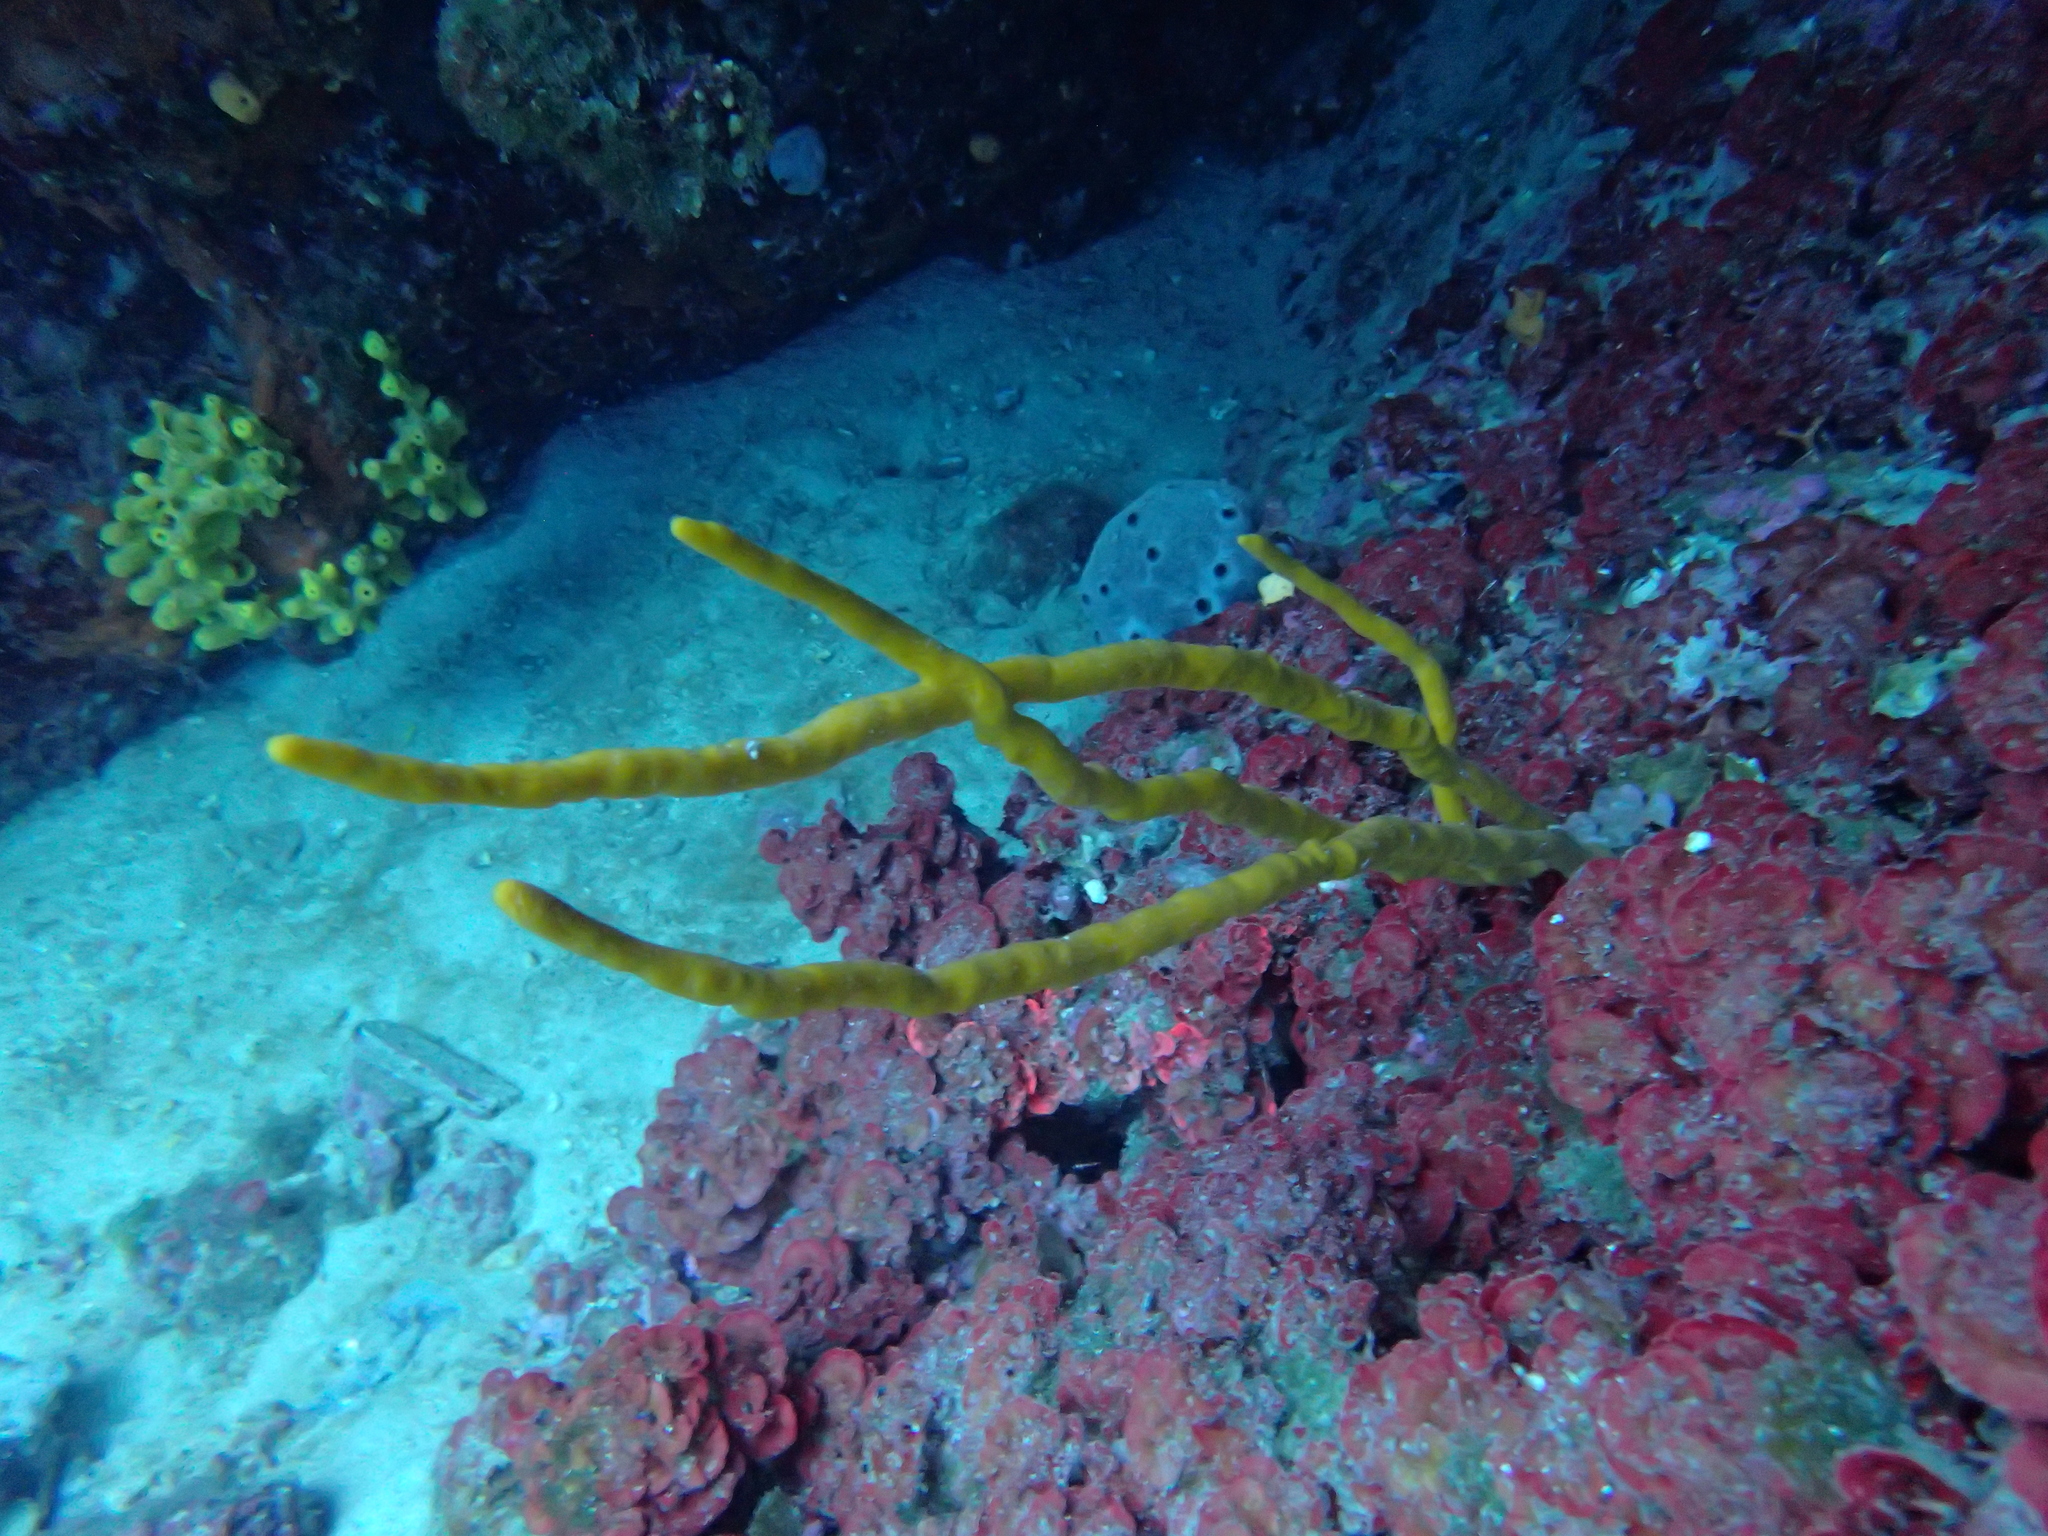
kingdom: Animalia
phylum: Porifera
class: Demospongiae
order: Axinellida
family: Axinellidae
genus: Axinella
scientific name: Axinella polypoides
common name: Common antlers sponge
